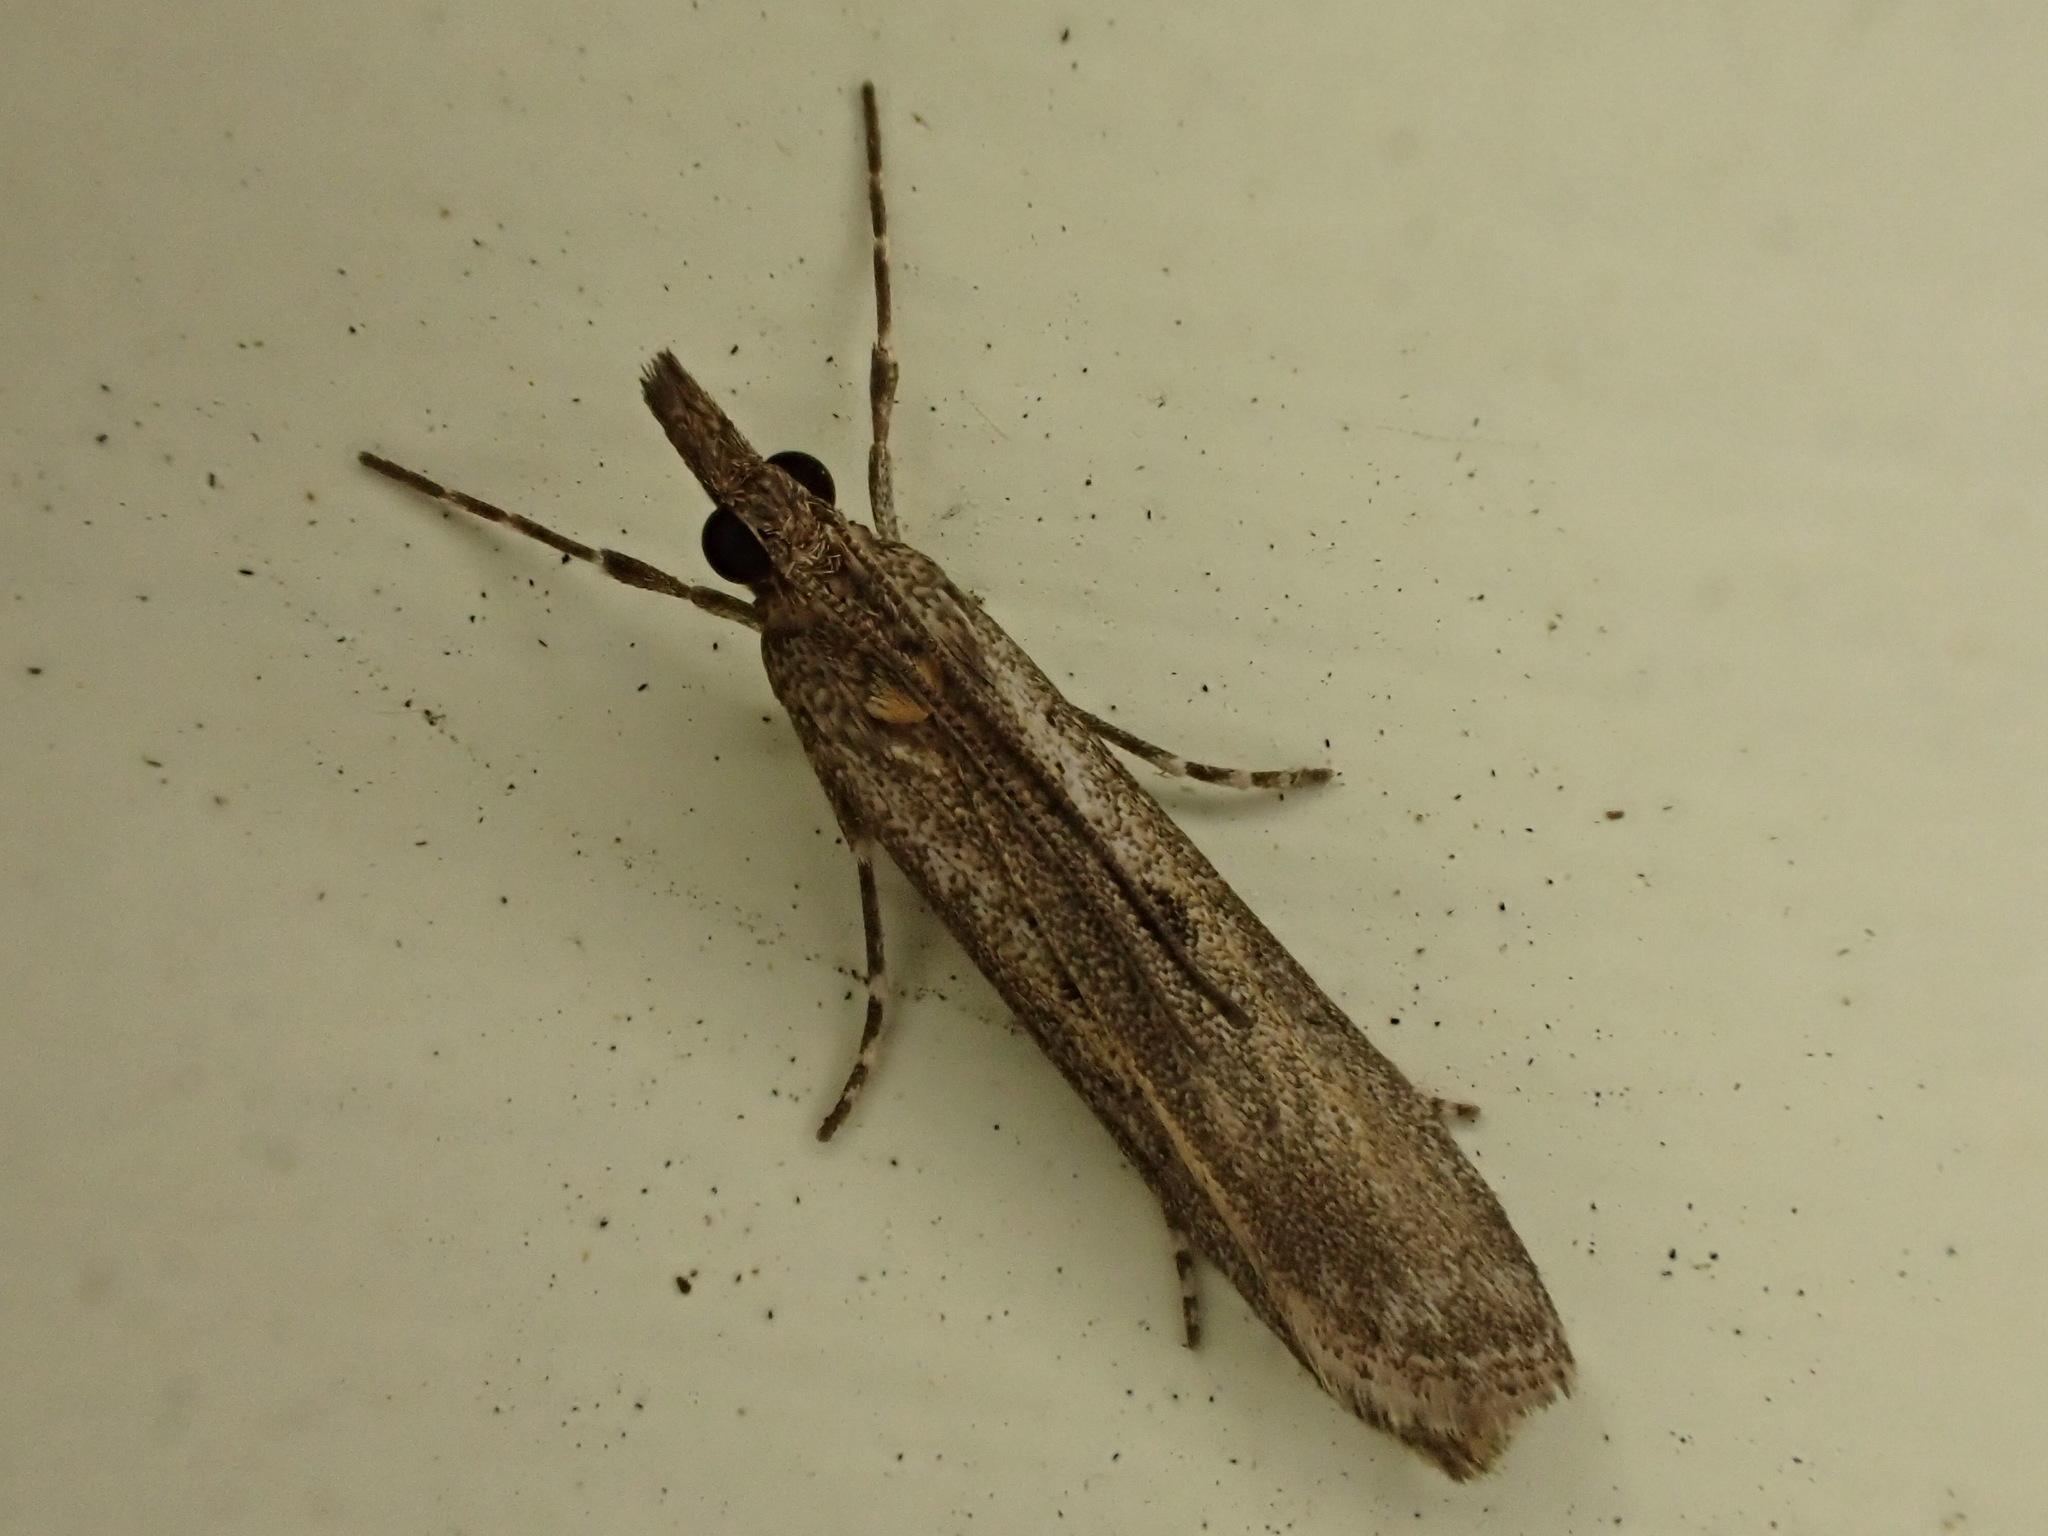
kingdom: Animalia
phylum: Arthropoda
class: Insecta
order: Lepidoptera
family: Crambidae
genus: Eudonia
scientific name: Eudonia leptalea
